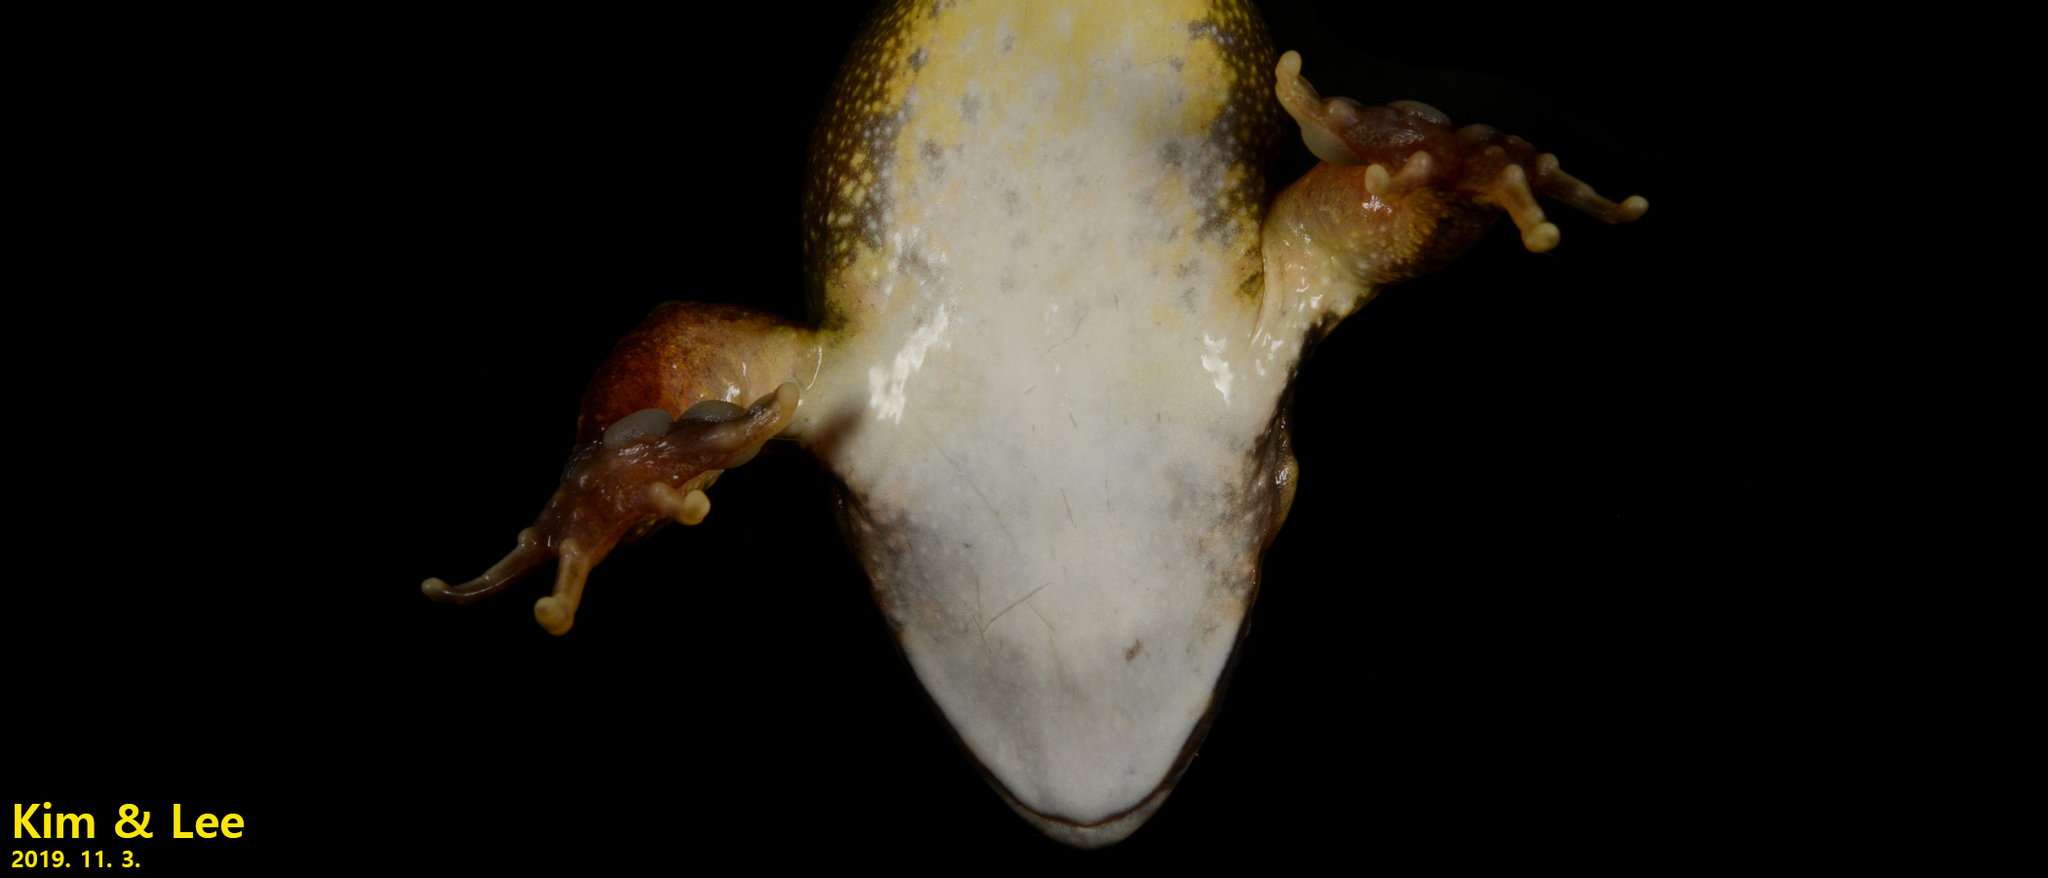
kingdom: Animalia
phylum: Chordata
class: Amphibia
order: Anura
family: Ranidae
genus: Rana
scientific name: Rana uenoi
